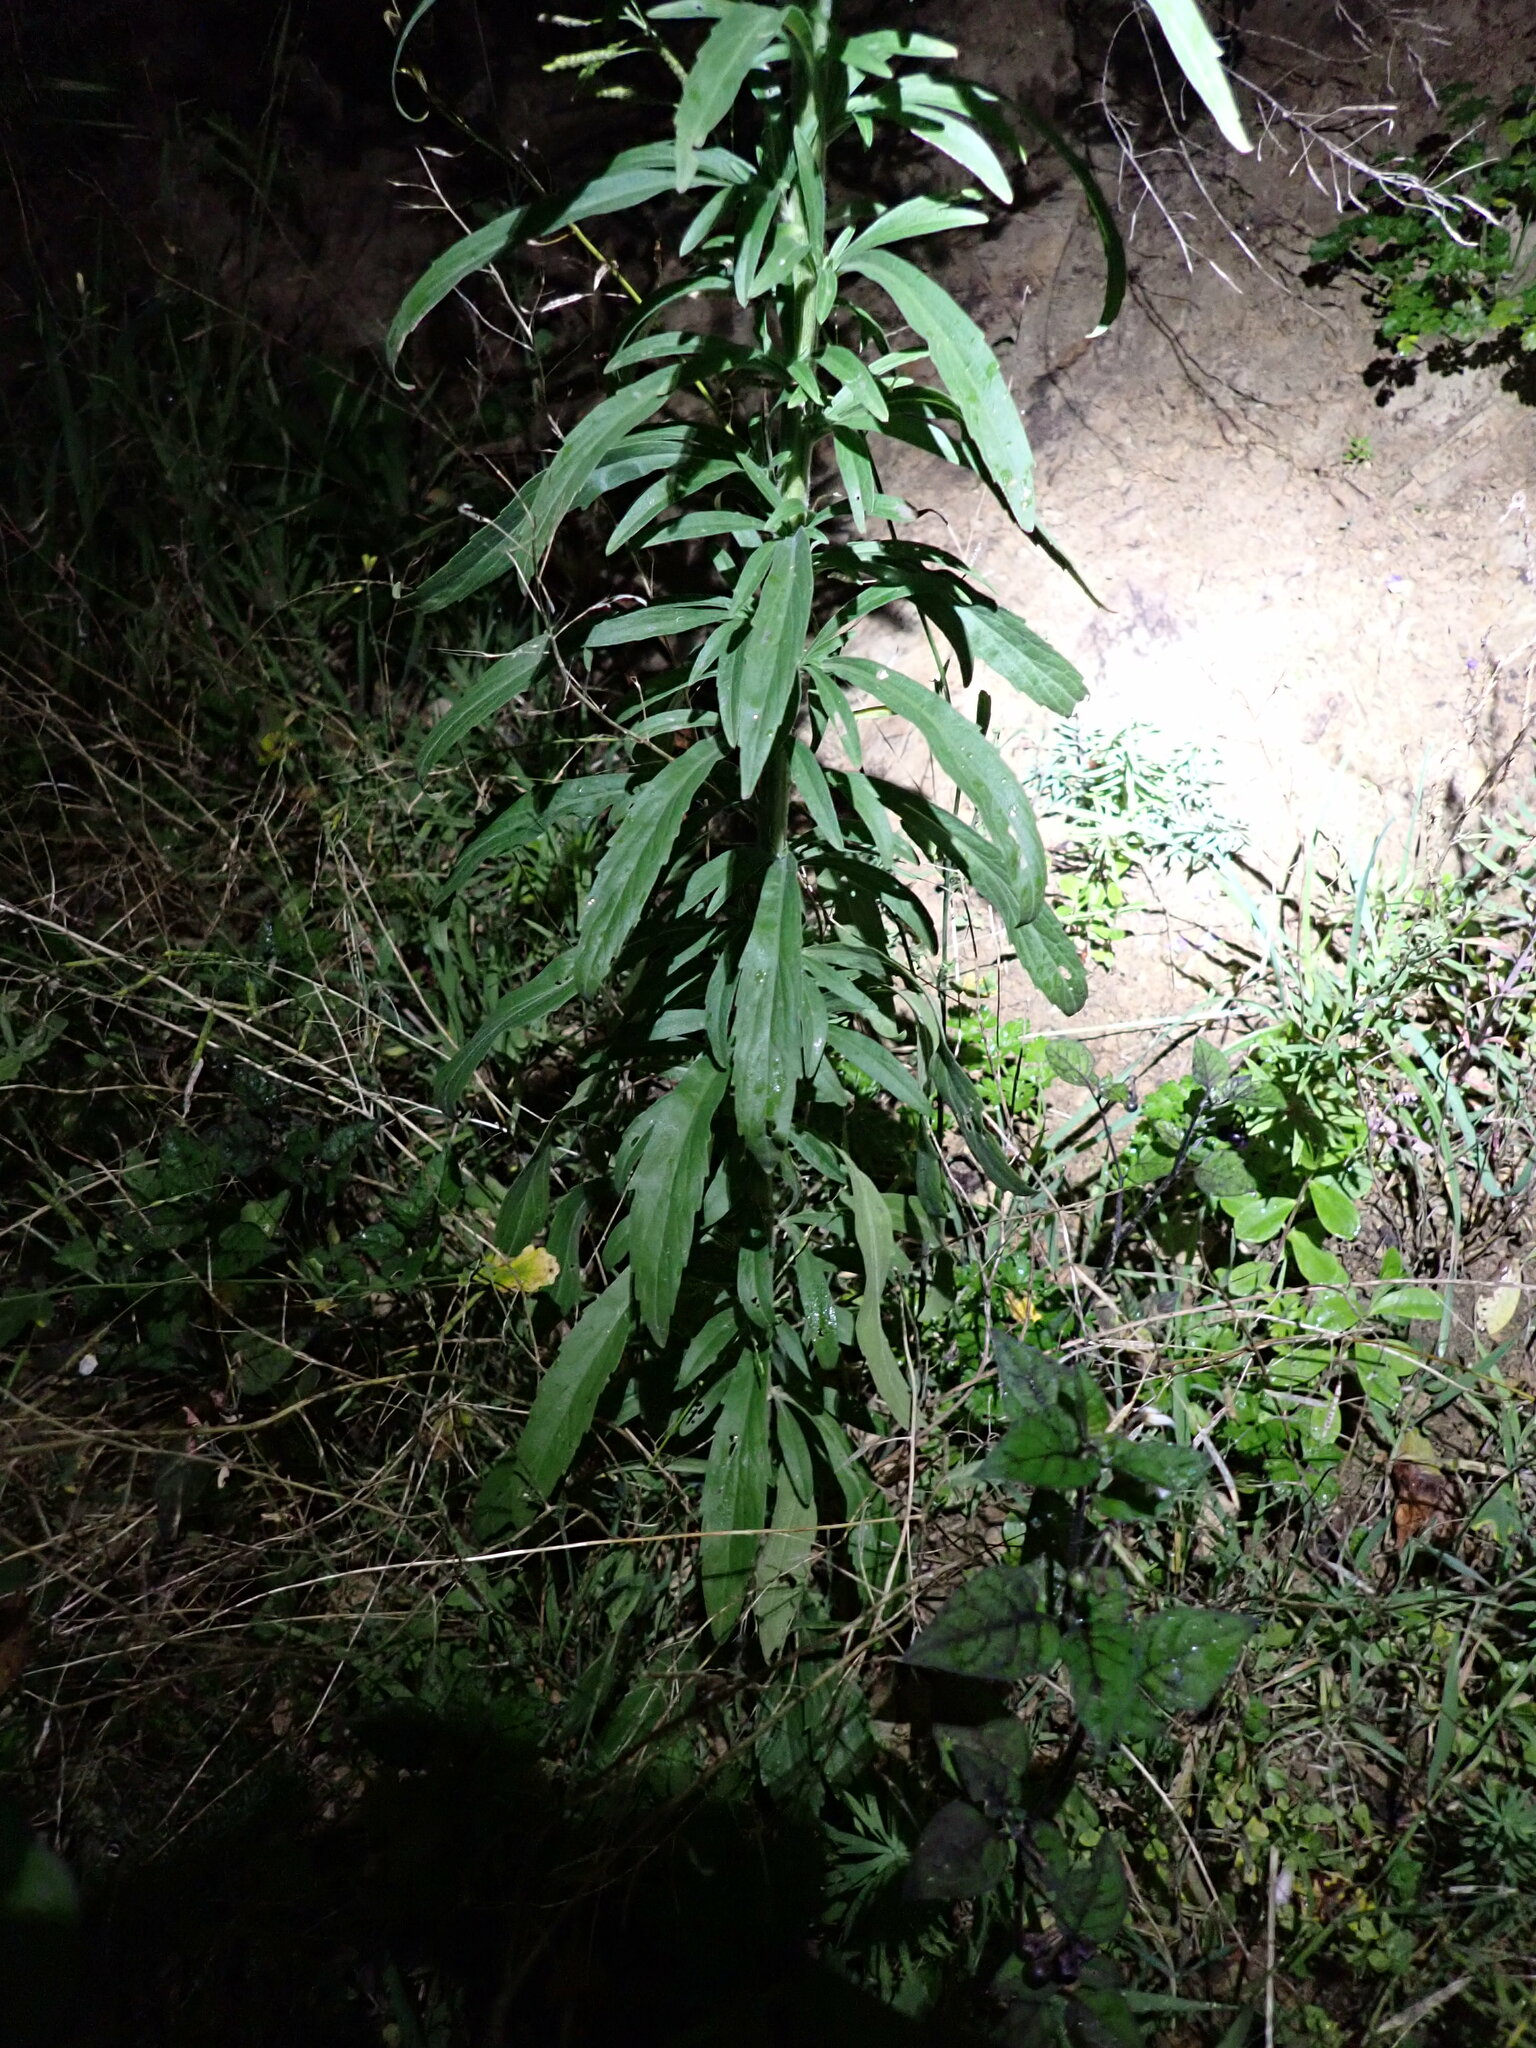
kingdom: Plantae
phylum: Tracheophyta
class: Magnoliopsida
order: Asterales
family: Asteraceae
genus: Erigeron
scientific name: Erigeron sumatrensis
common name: Daisy
